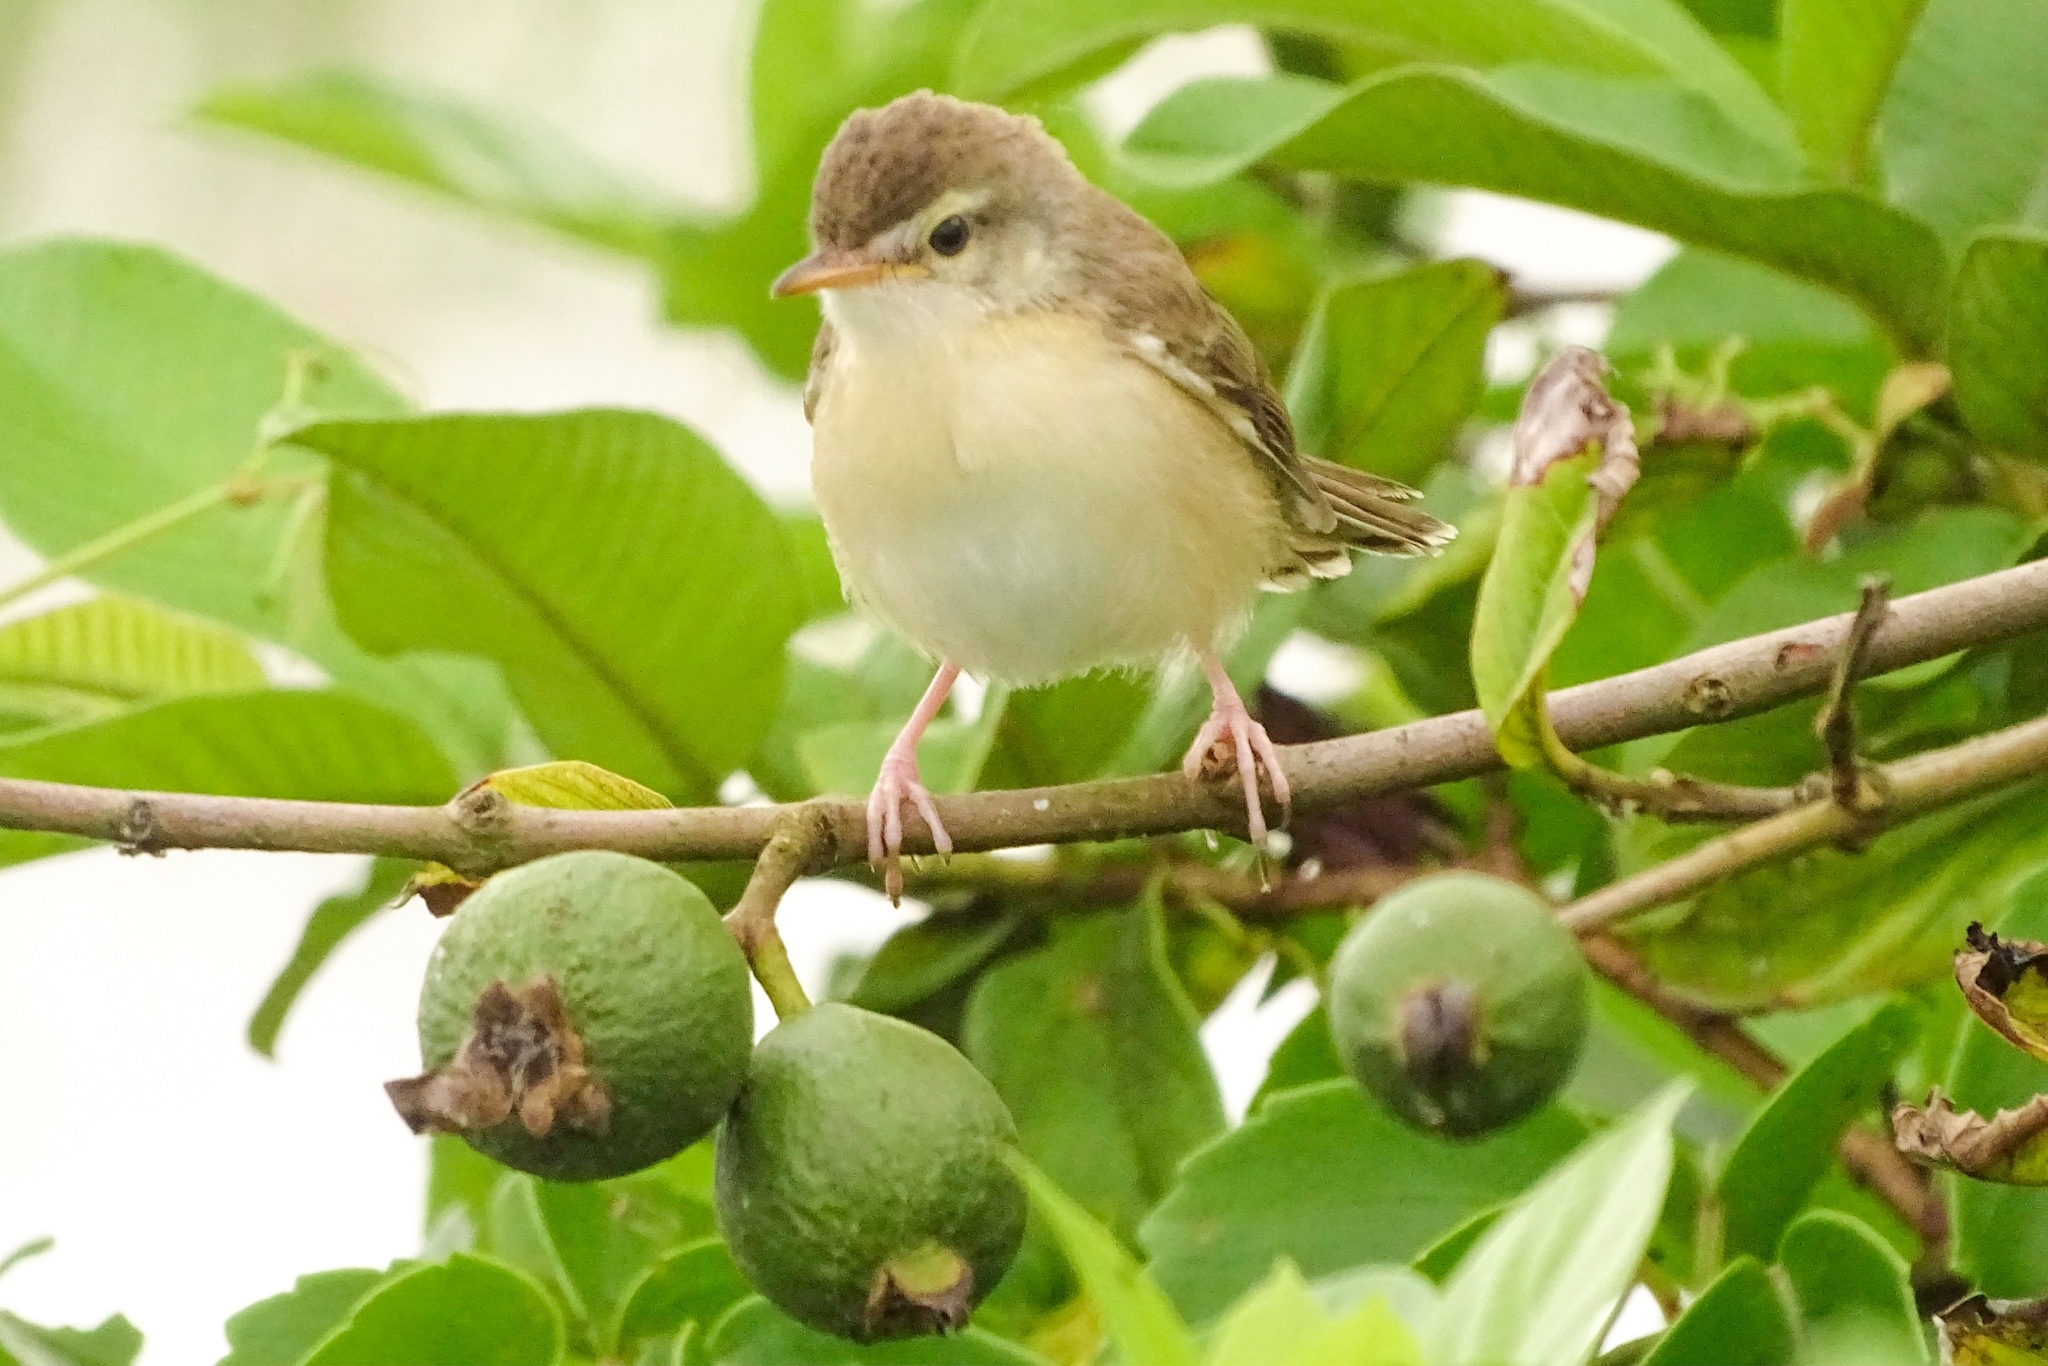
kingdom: Animalia
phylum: Chordata
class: Aves
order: Passeriformes
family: Cisticolidae
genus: Prinia
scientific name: Prinia inornata
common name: Plain prinia
